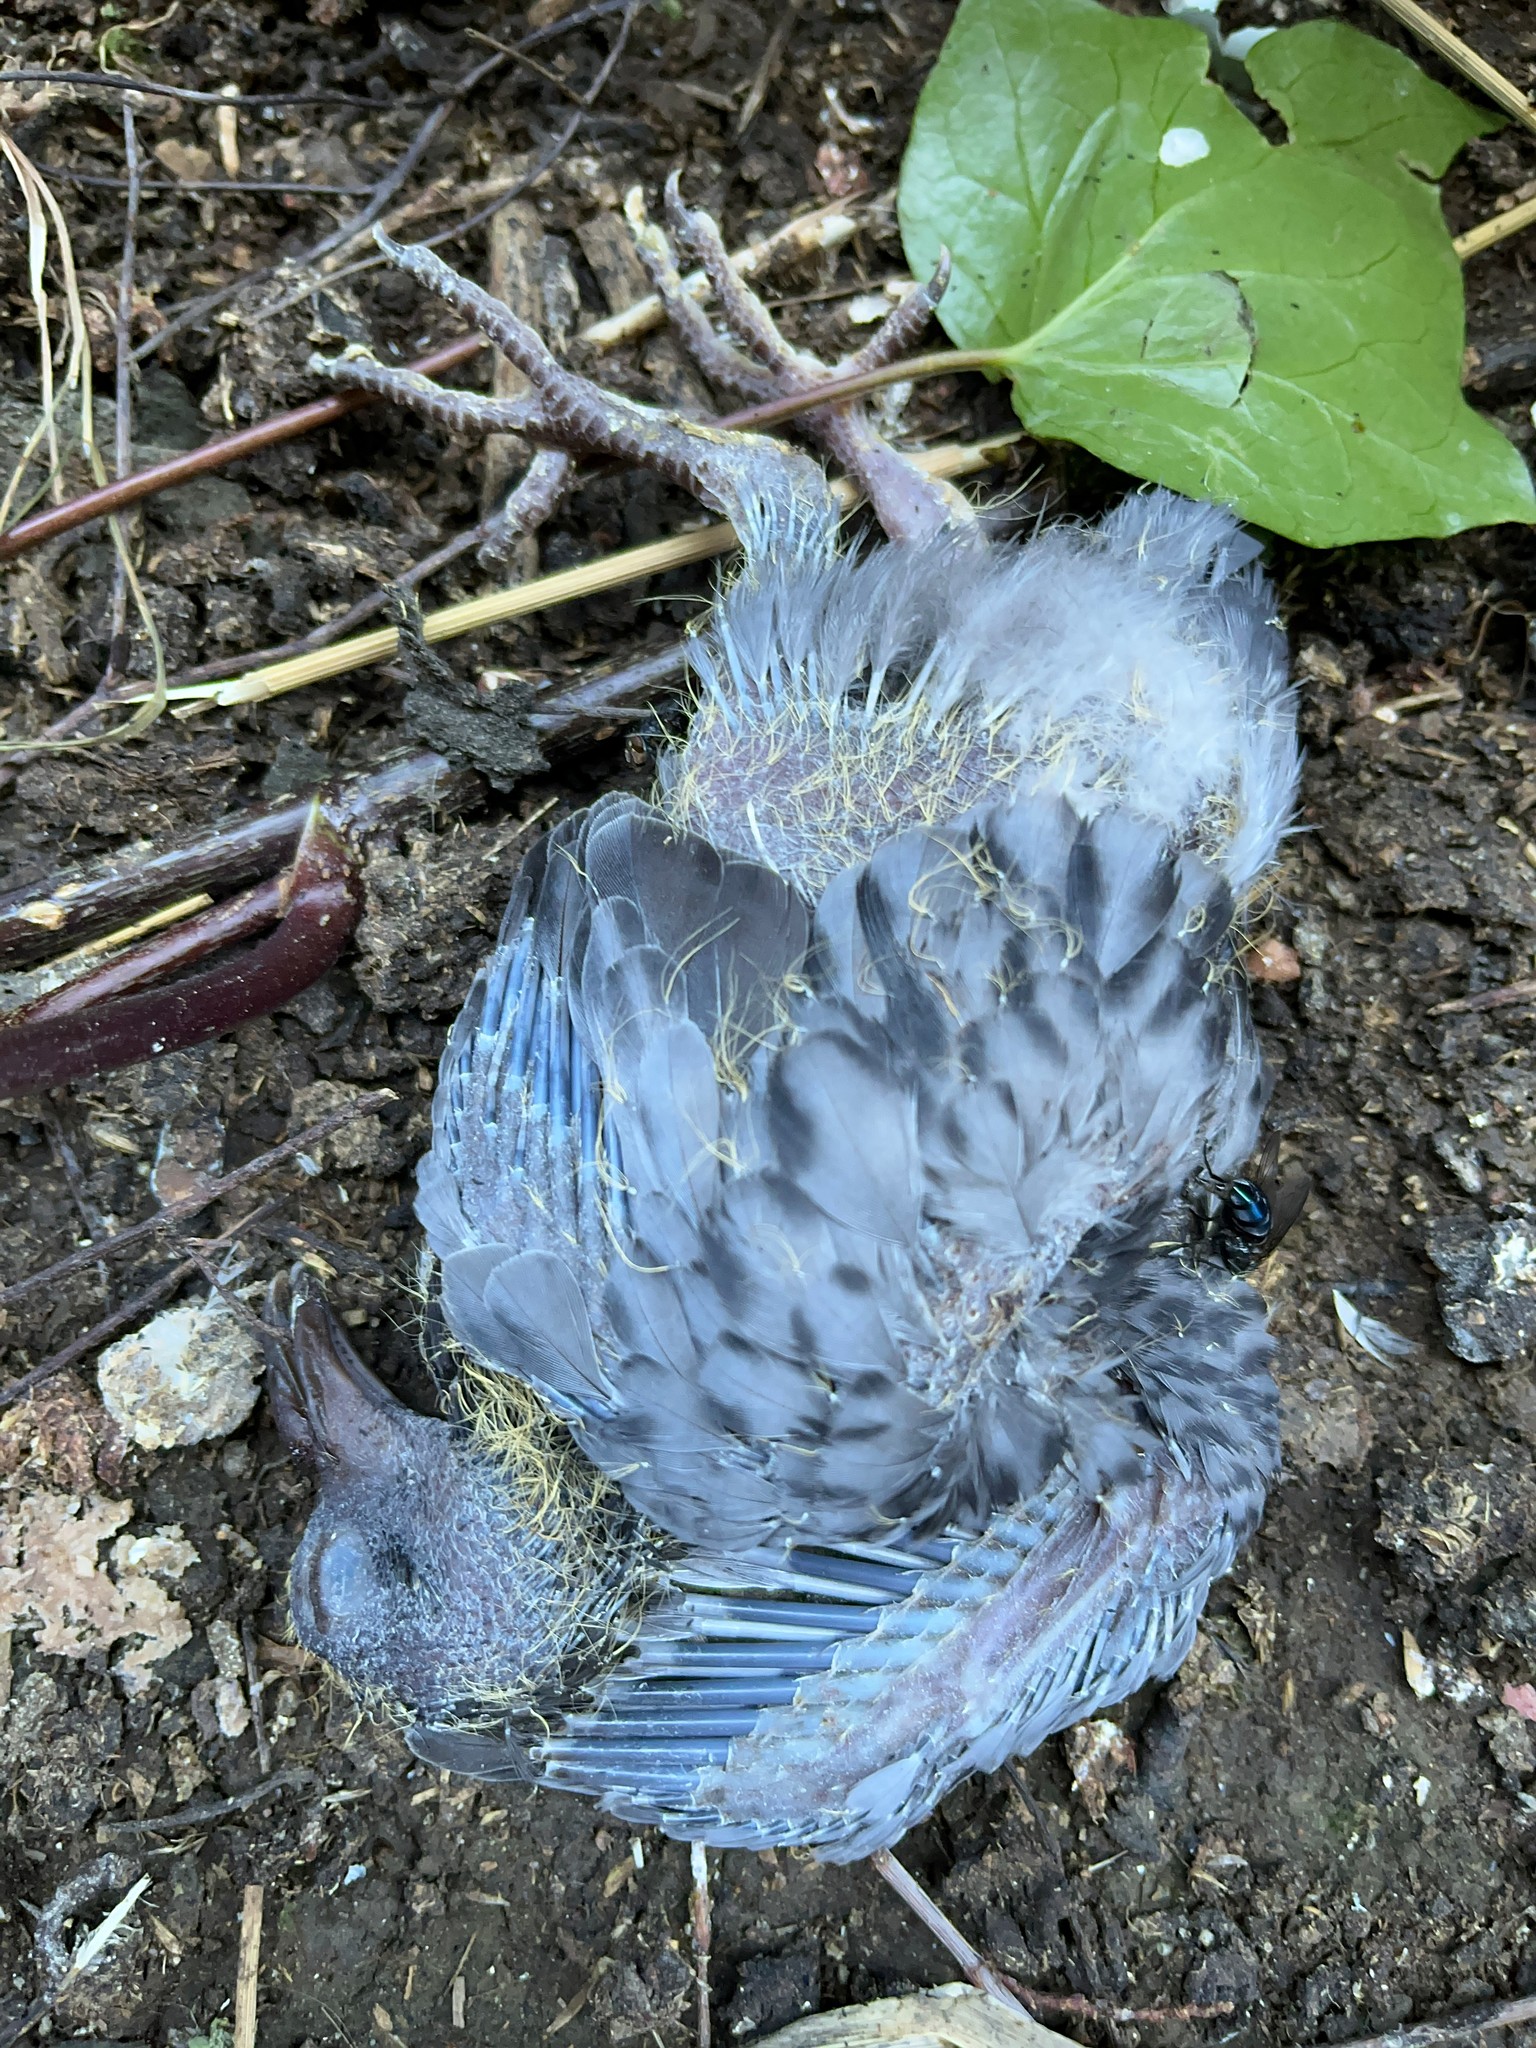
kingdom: Animalia
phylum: Chordata
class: Aves
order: Columbiformes
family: Columbidae
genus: Columba
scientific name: Columba livia
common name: Rock pigeon
